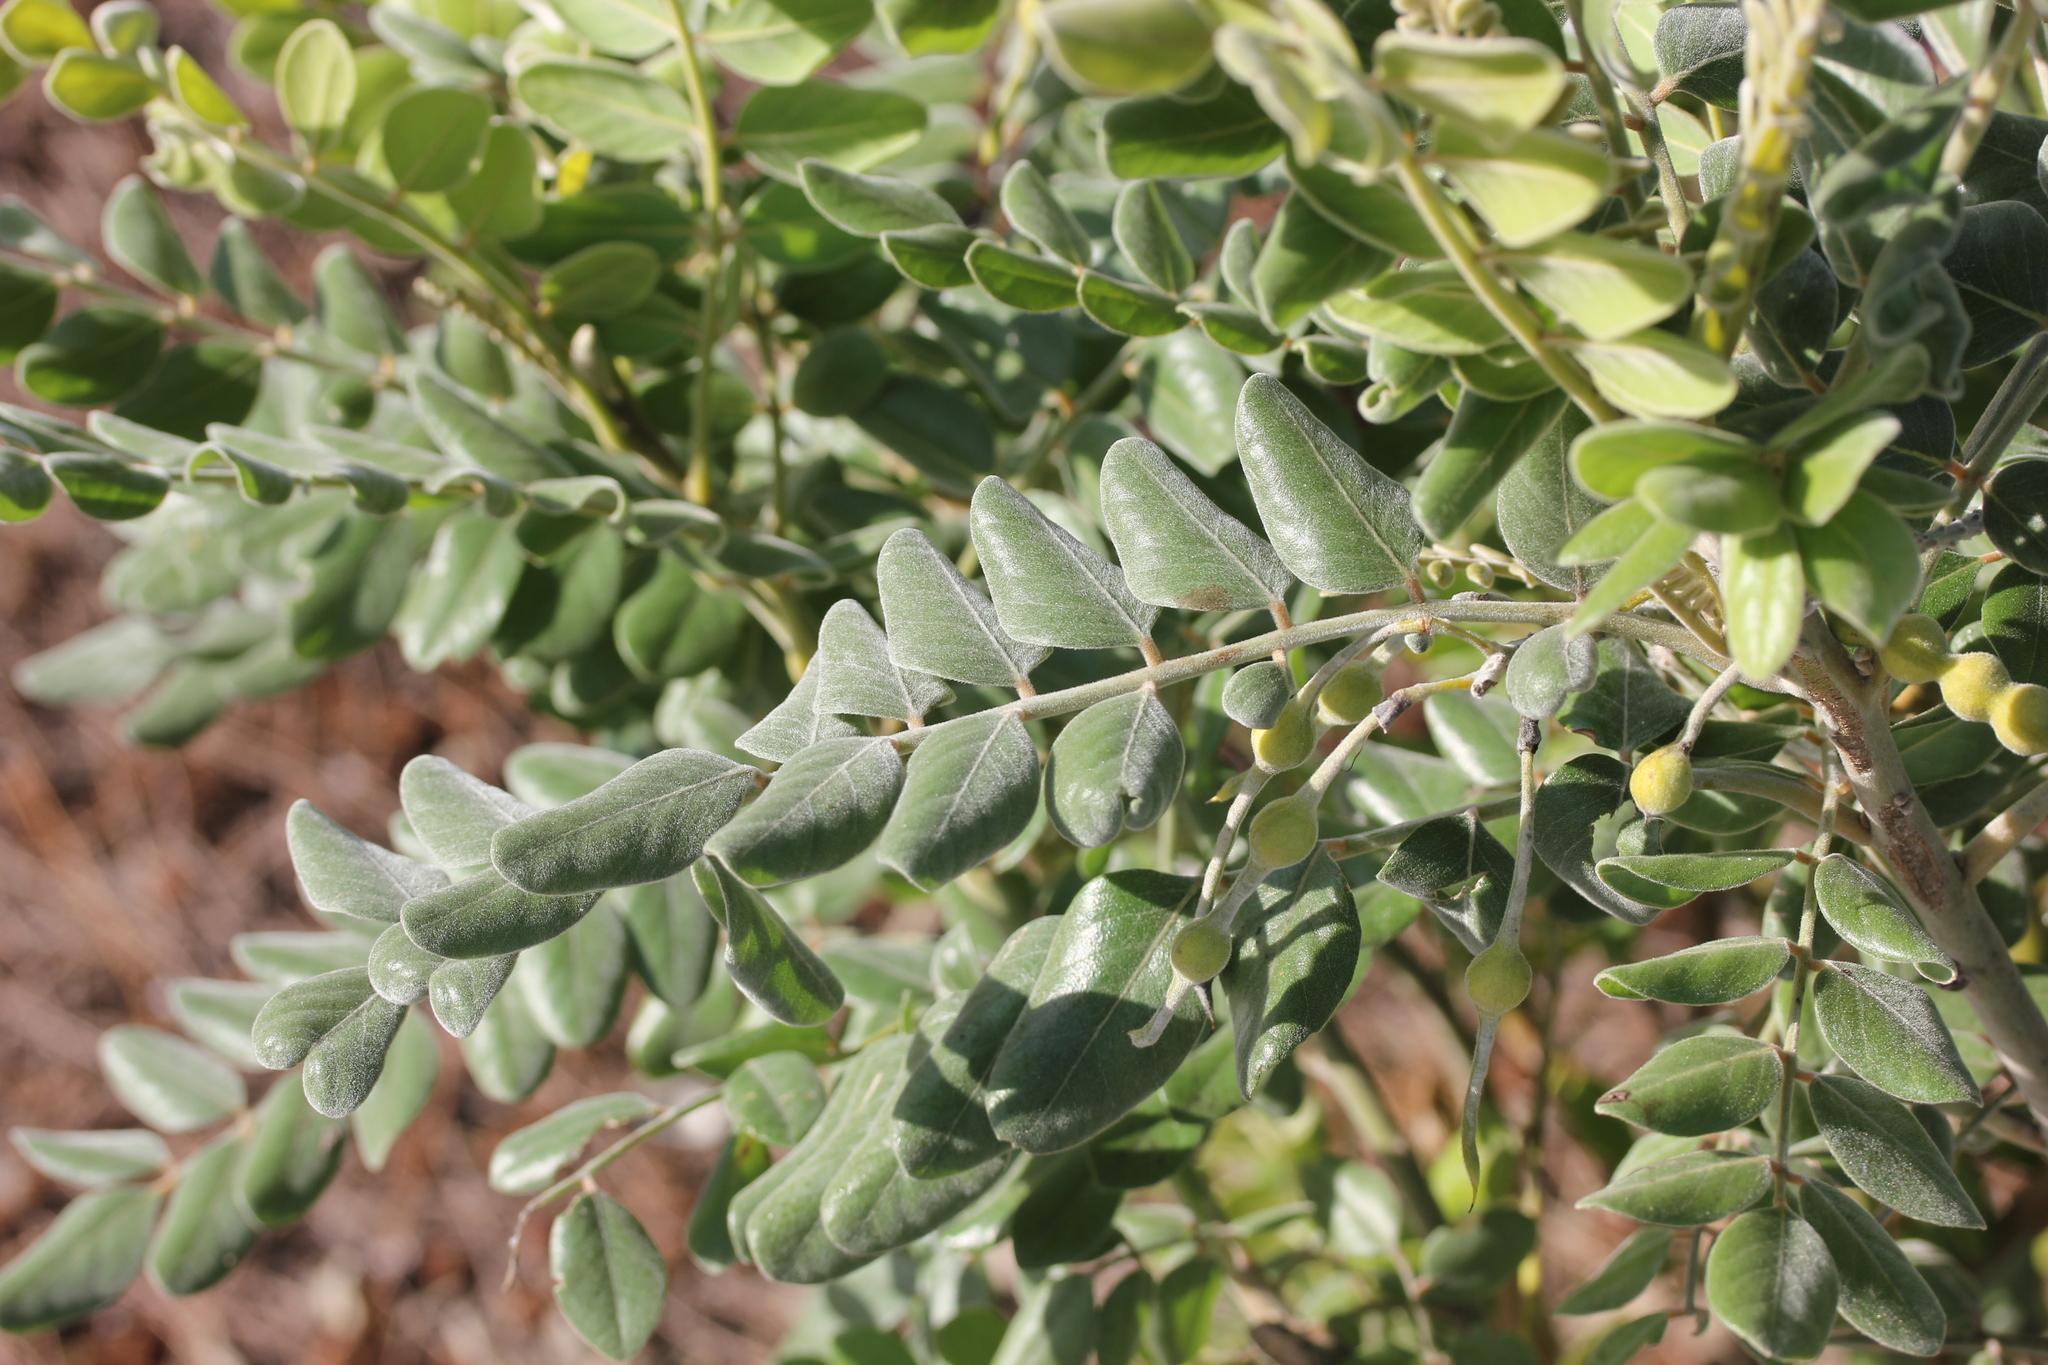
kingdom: Plantae
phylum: Tracheophyta
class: Magnoliopsida
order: Fabales
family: Fabaceae
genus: Sophora
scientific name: Sophora tomentosa
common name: Yellow necklacepod
